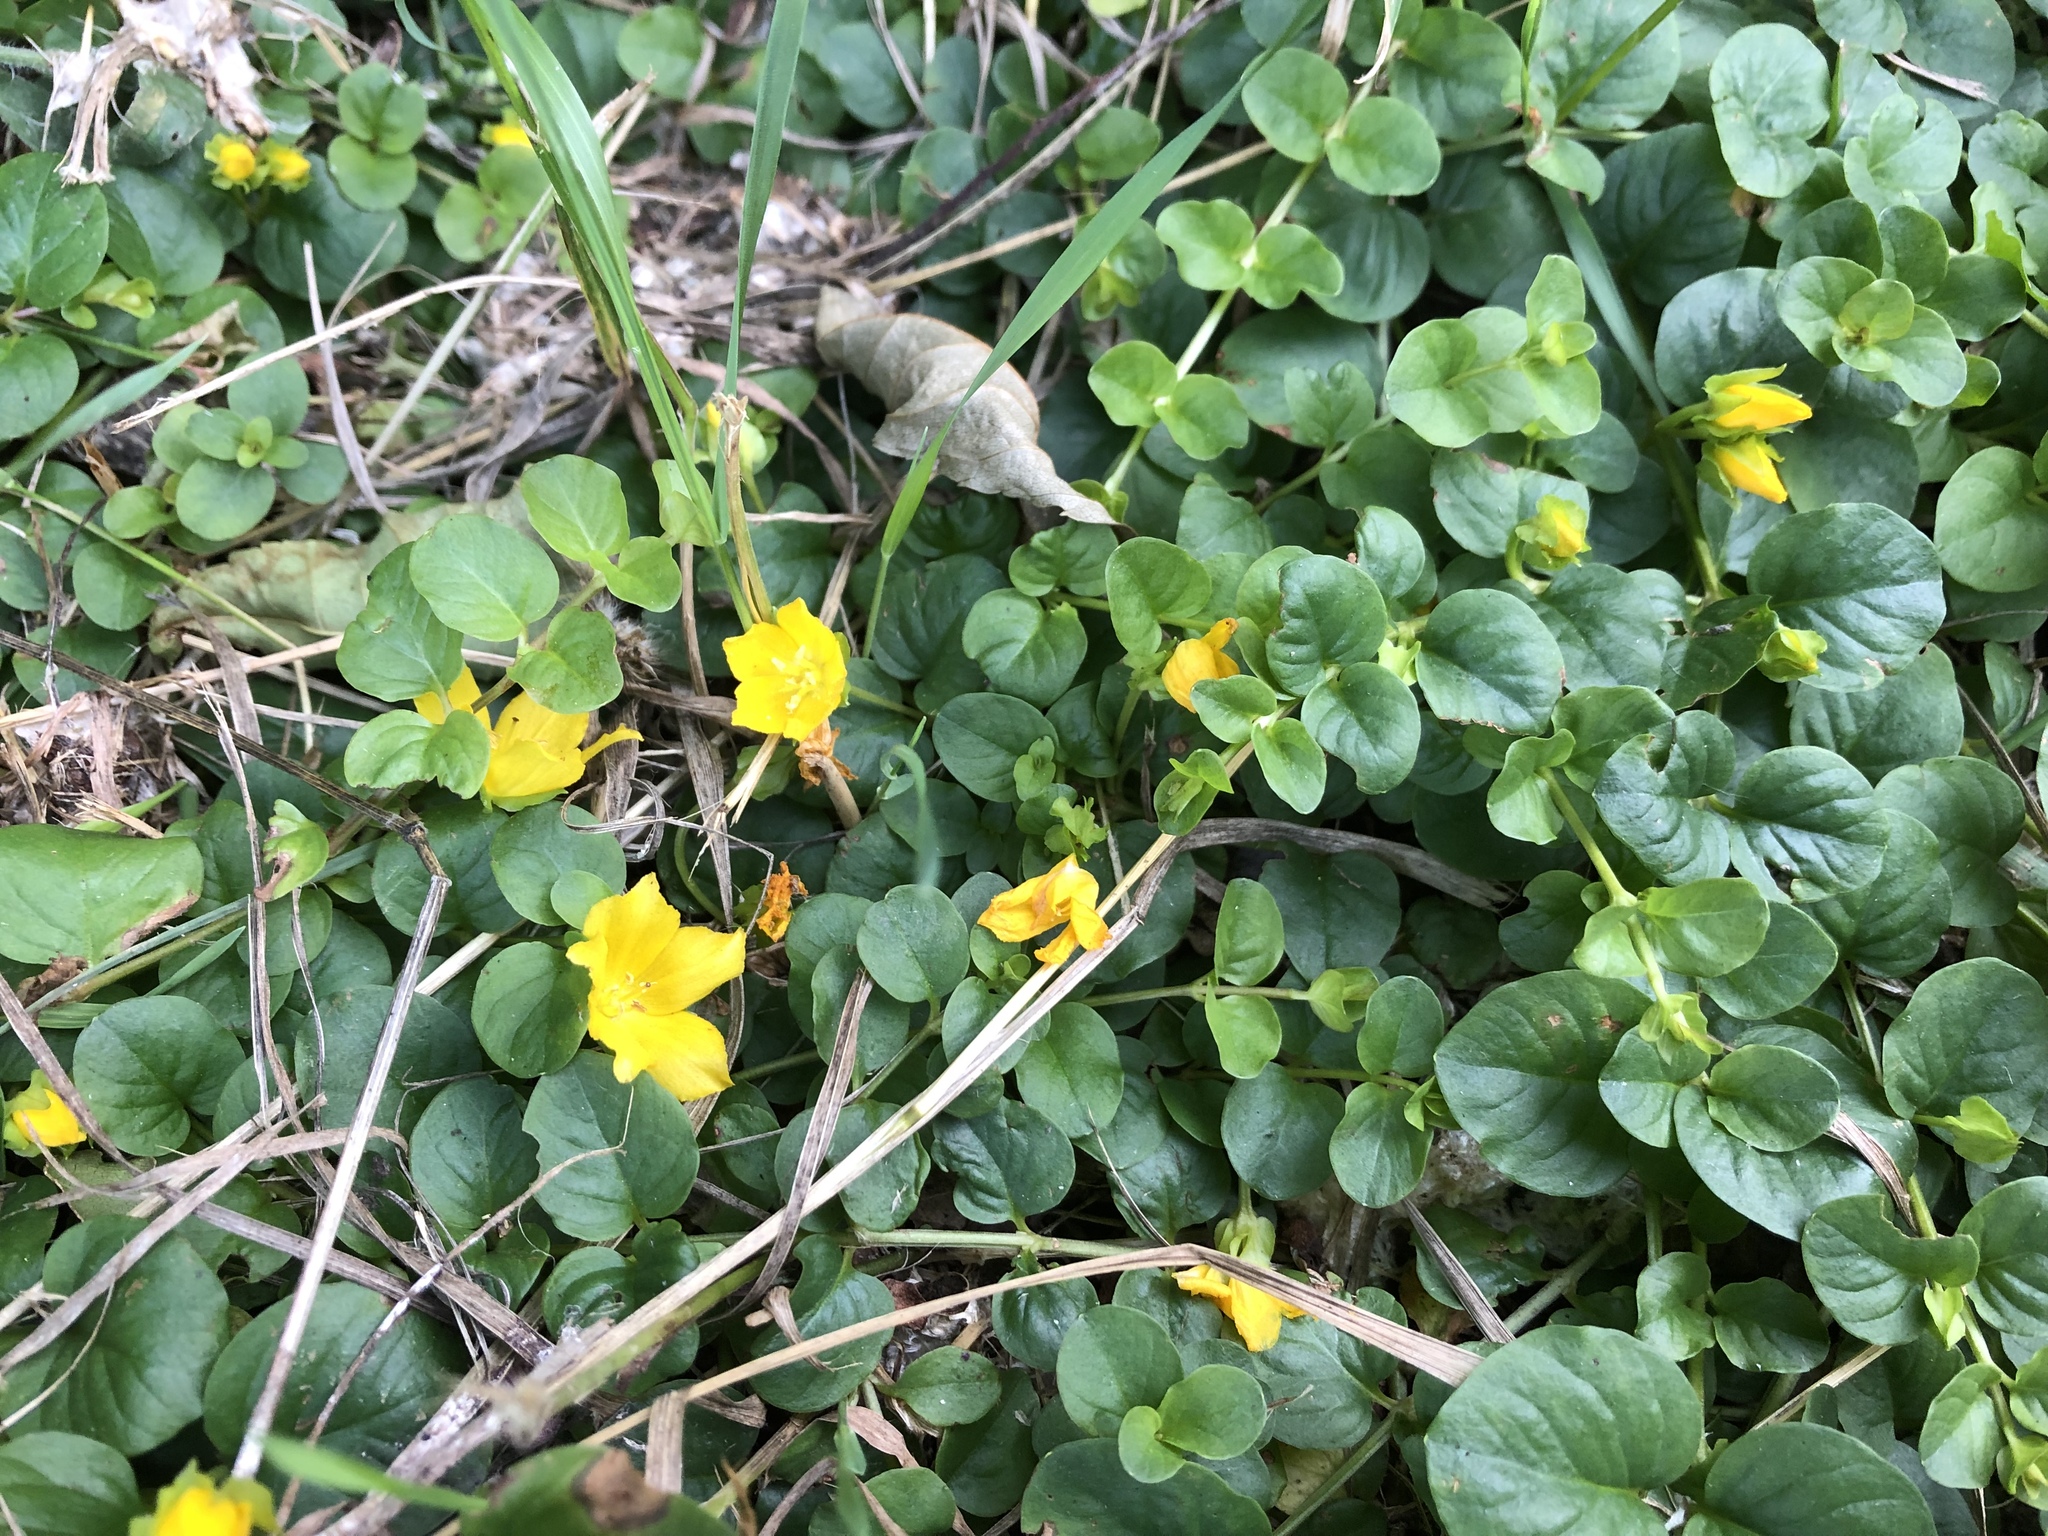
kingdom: Plantae
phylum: Tracheophyta
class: Magnoliopsida
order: Ericales
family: Primulaceae
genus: Lysimachia
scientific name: Lysimachia nummularia
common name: Moneywort
